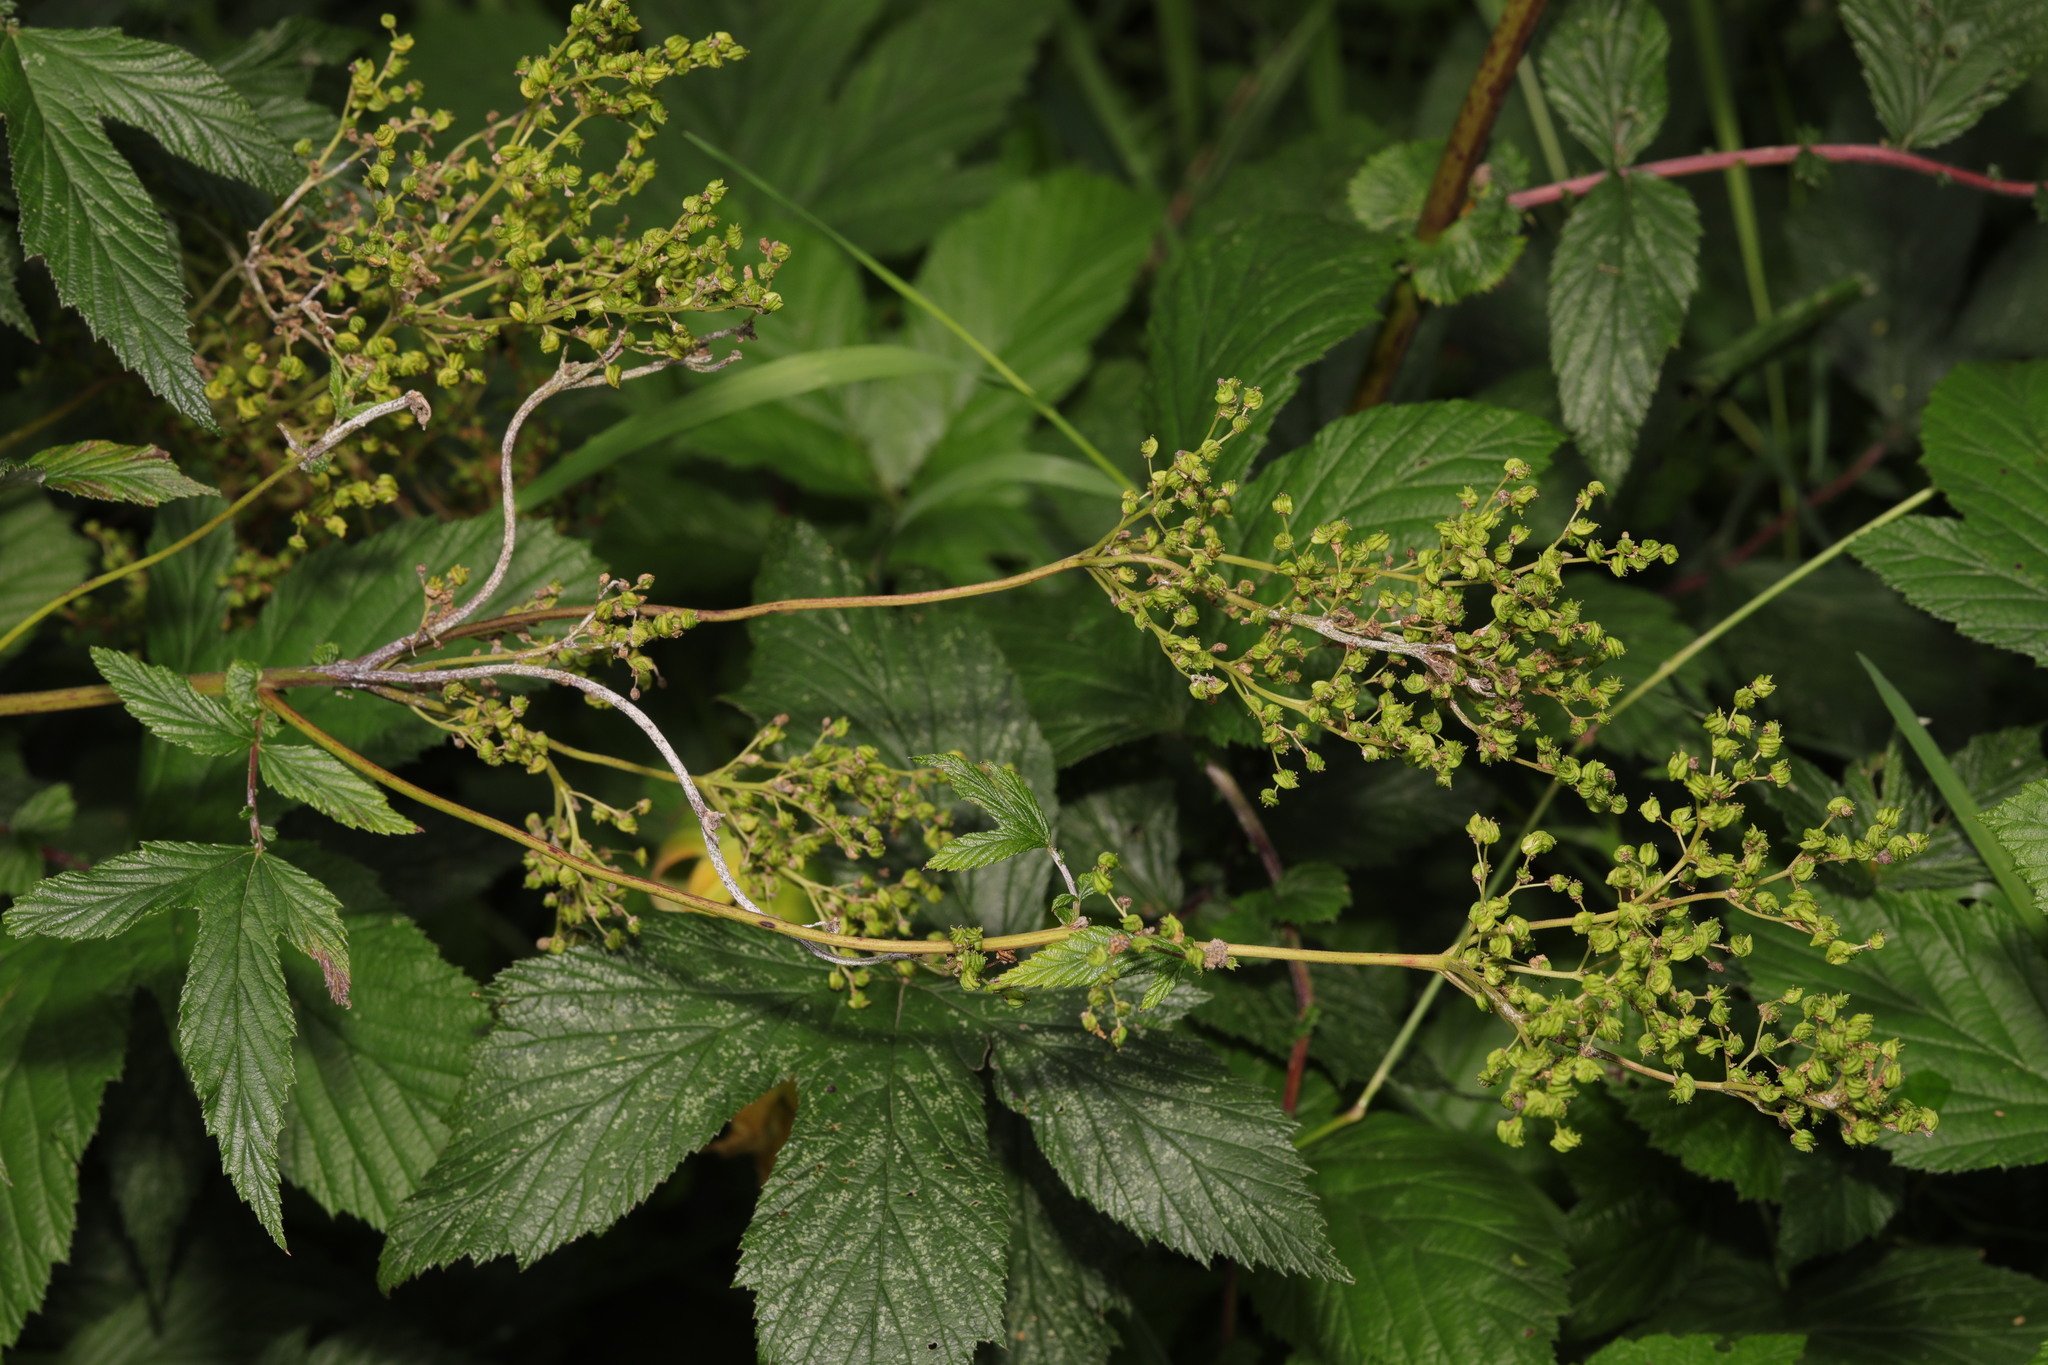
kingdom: Plantae
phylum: Tracheophyta
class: Magnoliopsida
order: Rosales
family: Rosaceae
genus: Filipendula
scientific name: Filipendula ulmaria
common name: Meadowsweet
